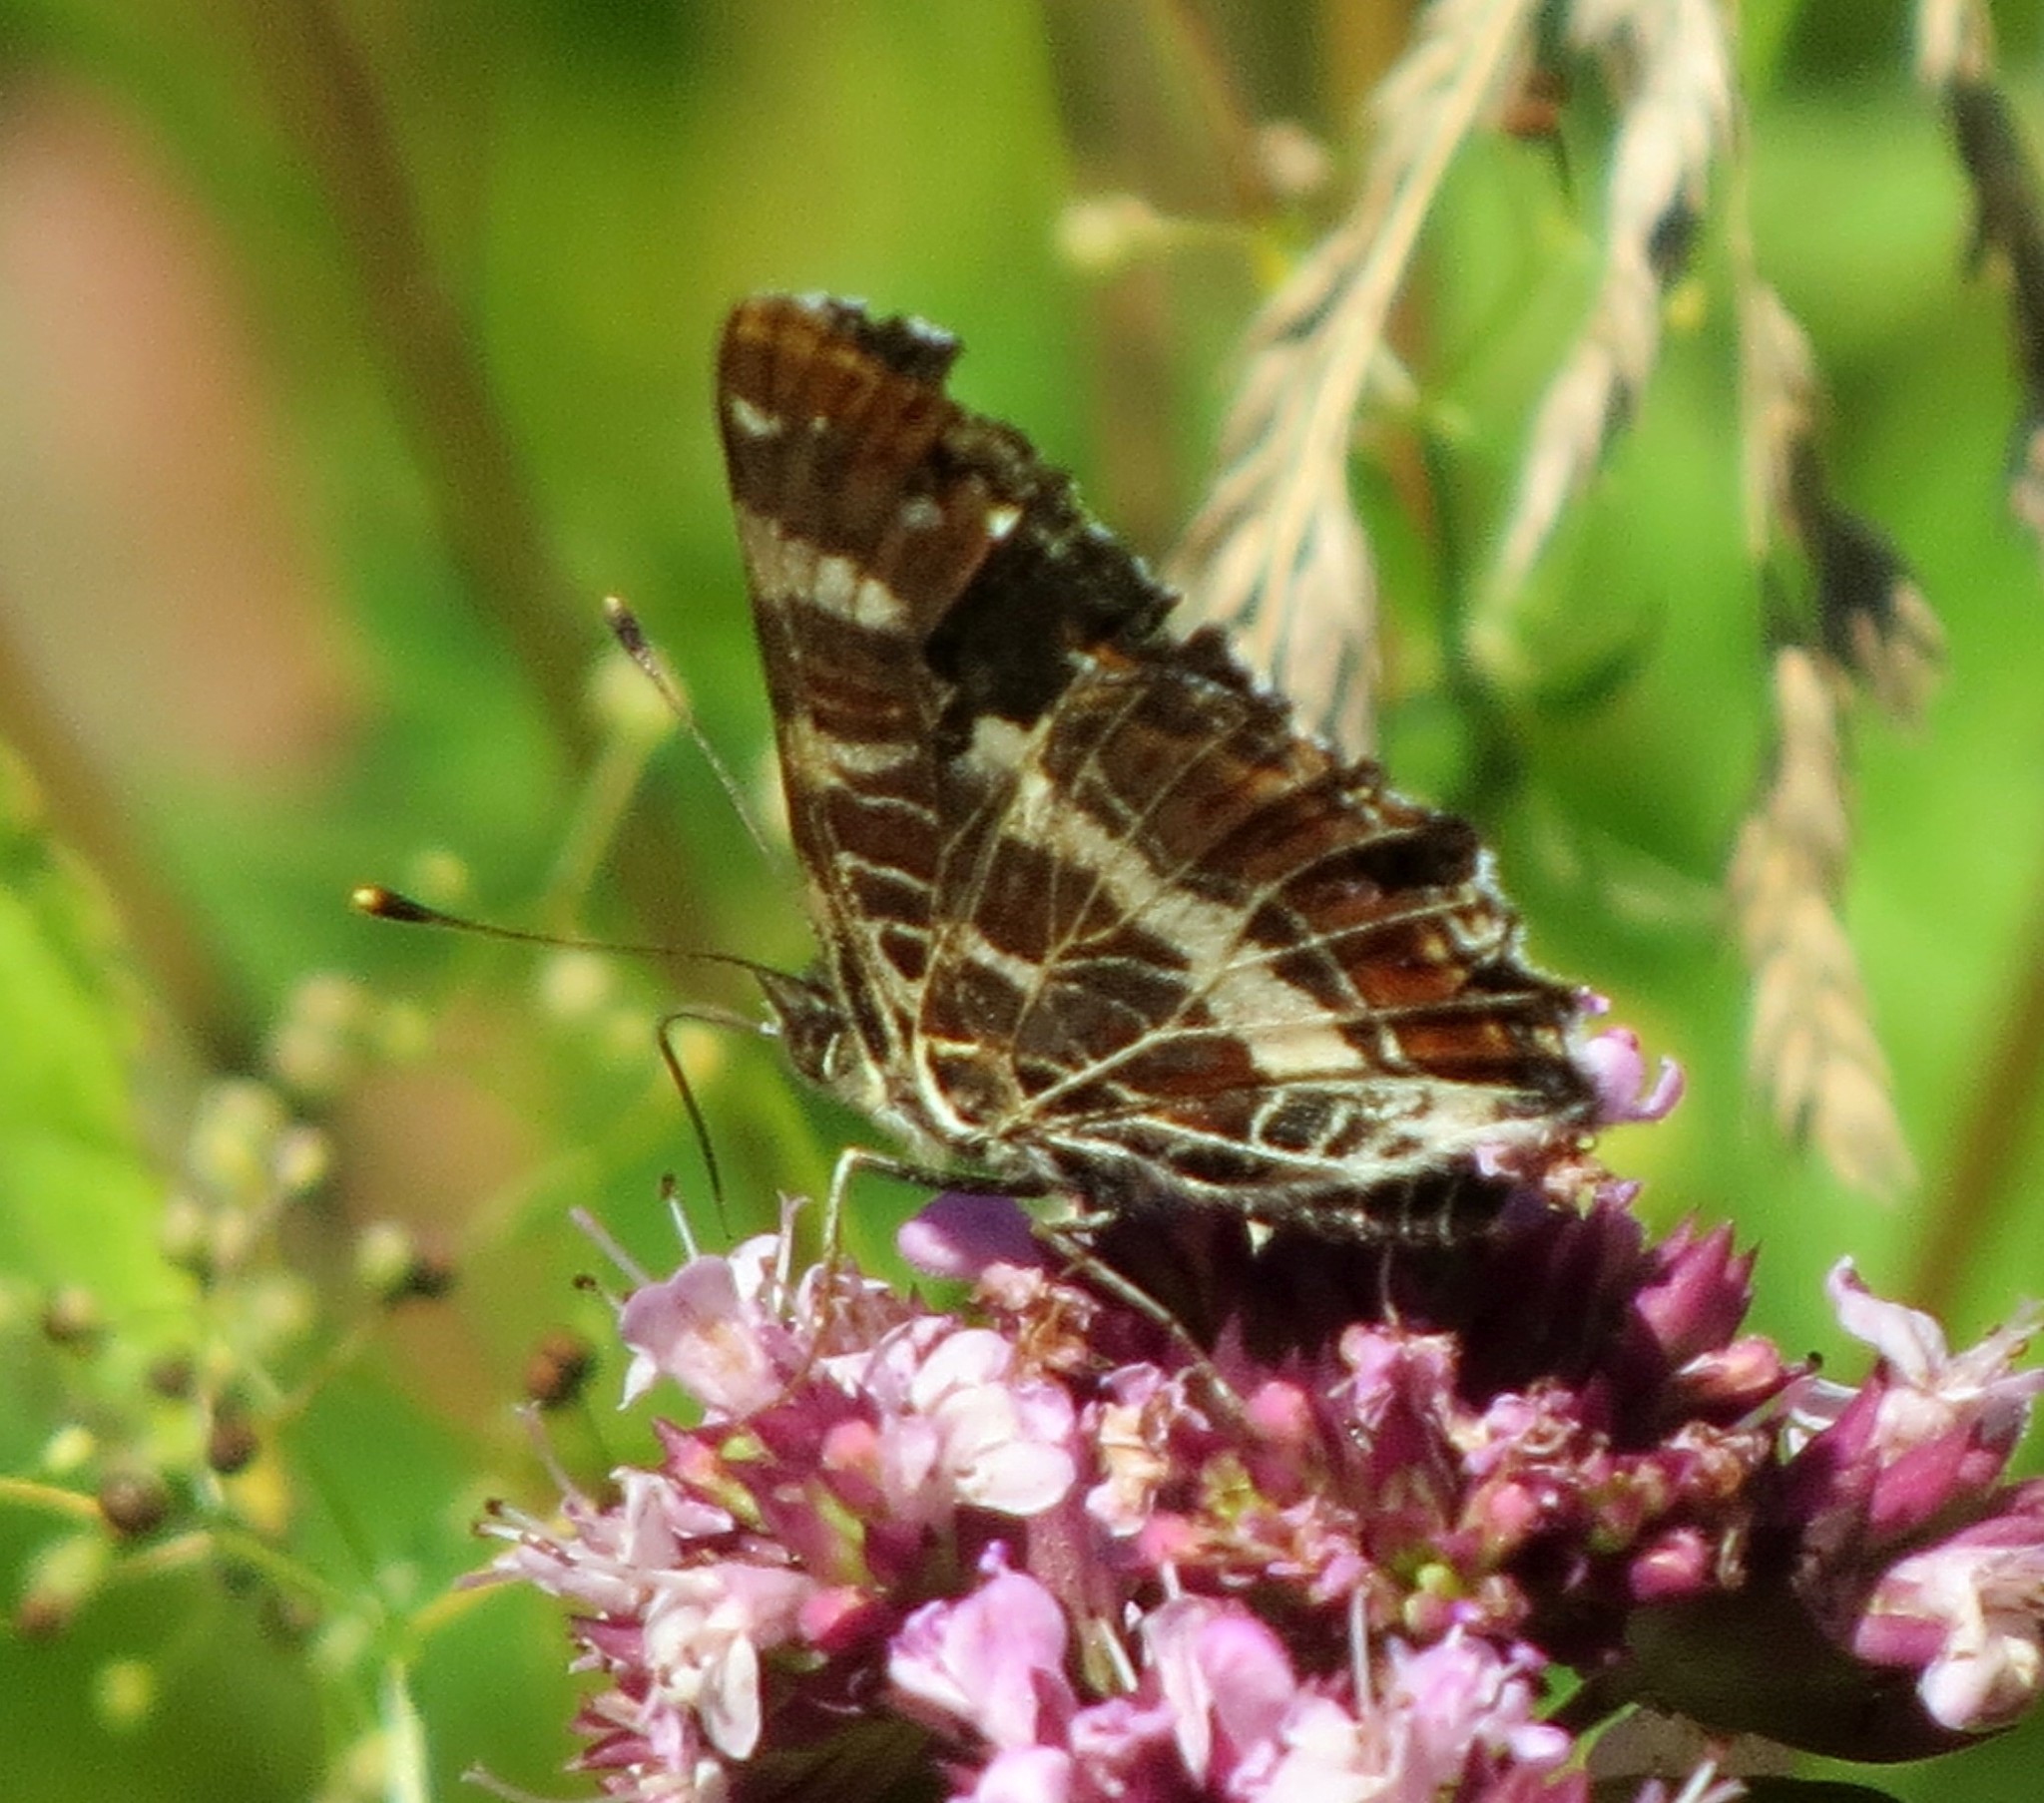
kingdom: Animalia
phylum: Arthropoda
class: Insecta
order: Lepidoptera
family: Nymphalidae
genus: Araschnia
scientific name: Araschnia levana
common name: Map butterfly
